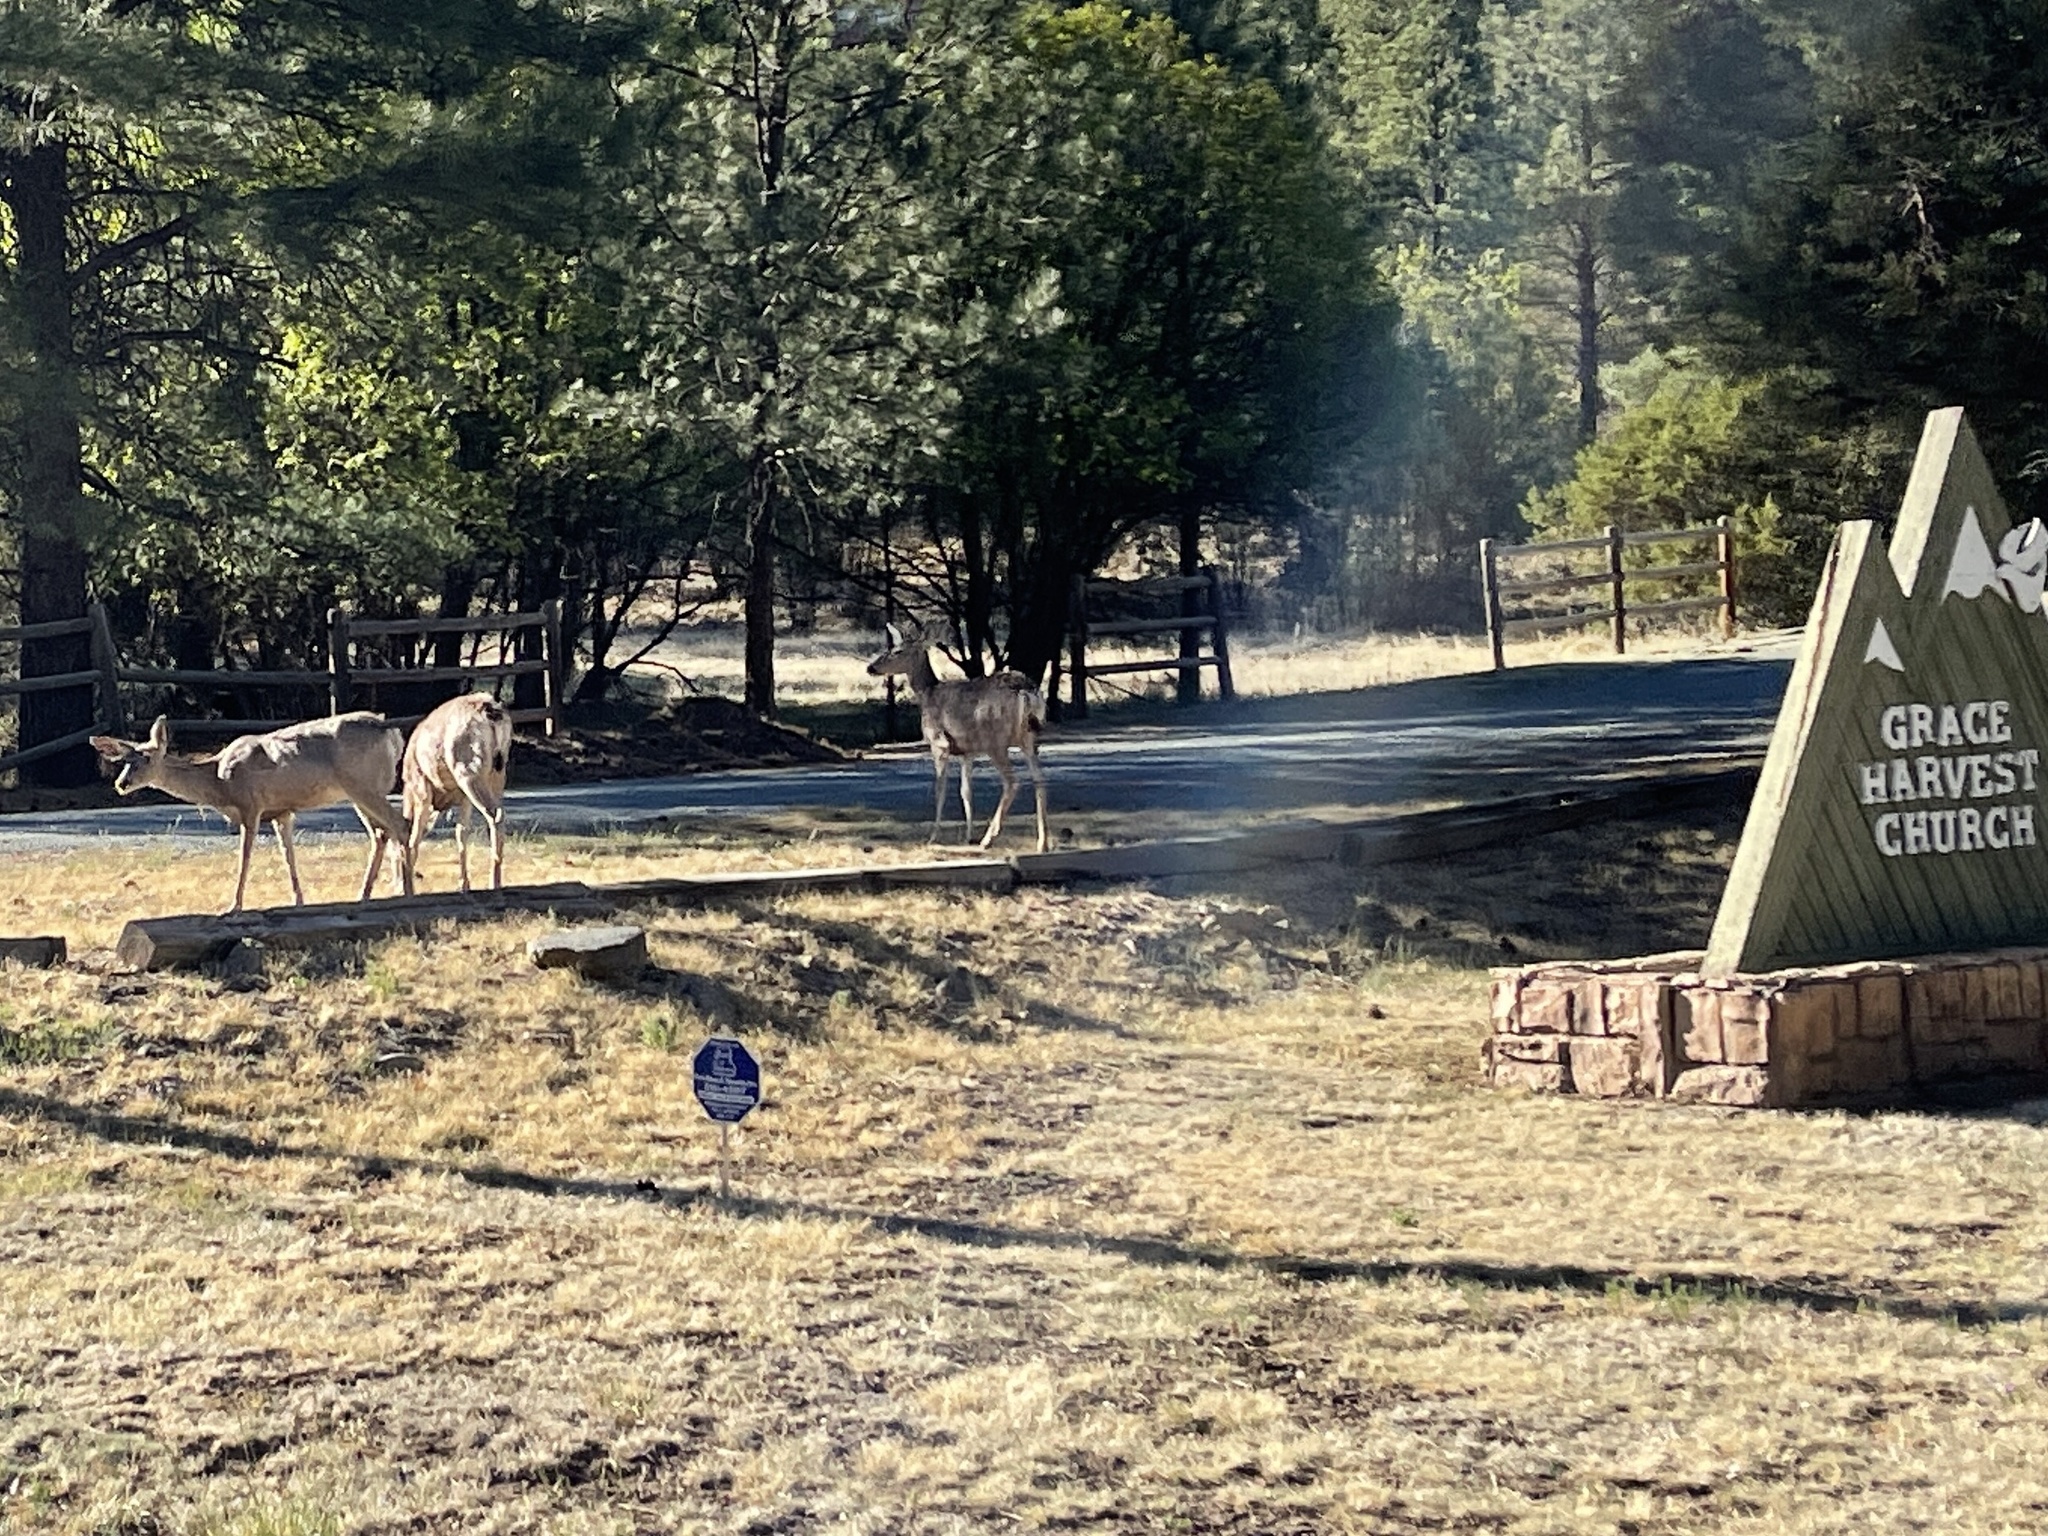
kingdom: Animalia
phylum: Chordata
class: Mammalia
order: Artiodactyla
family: Cervidae
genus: Odocoileus
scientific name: Odocoileus hemionus
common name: Mule deer
